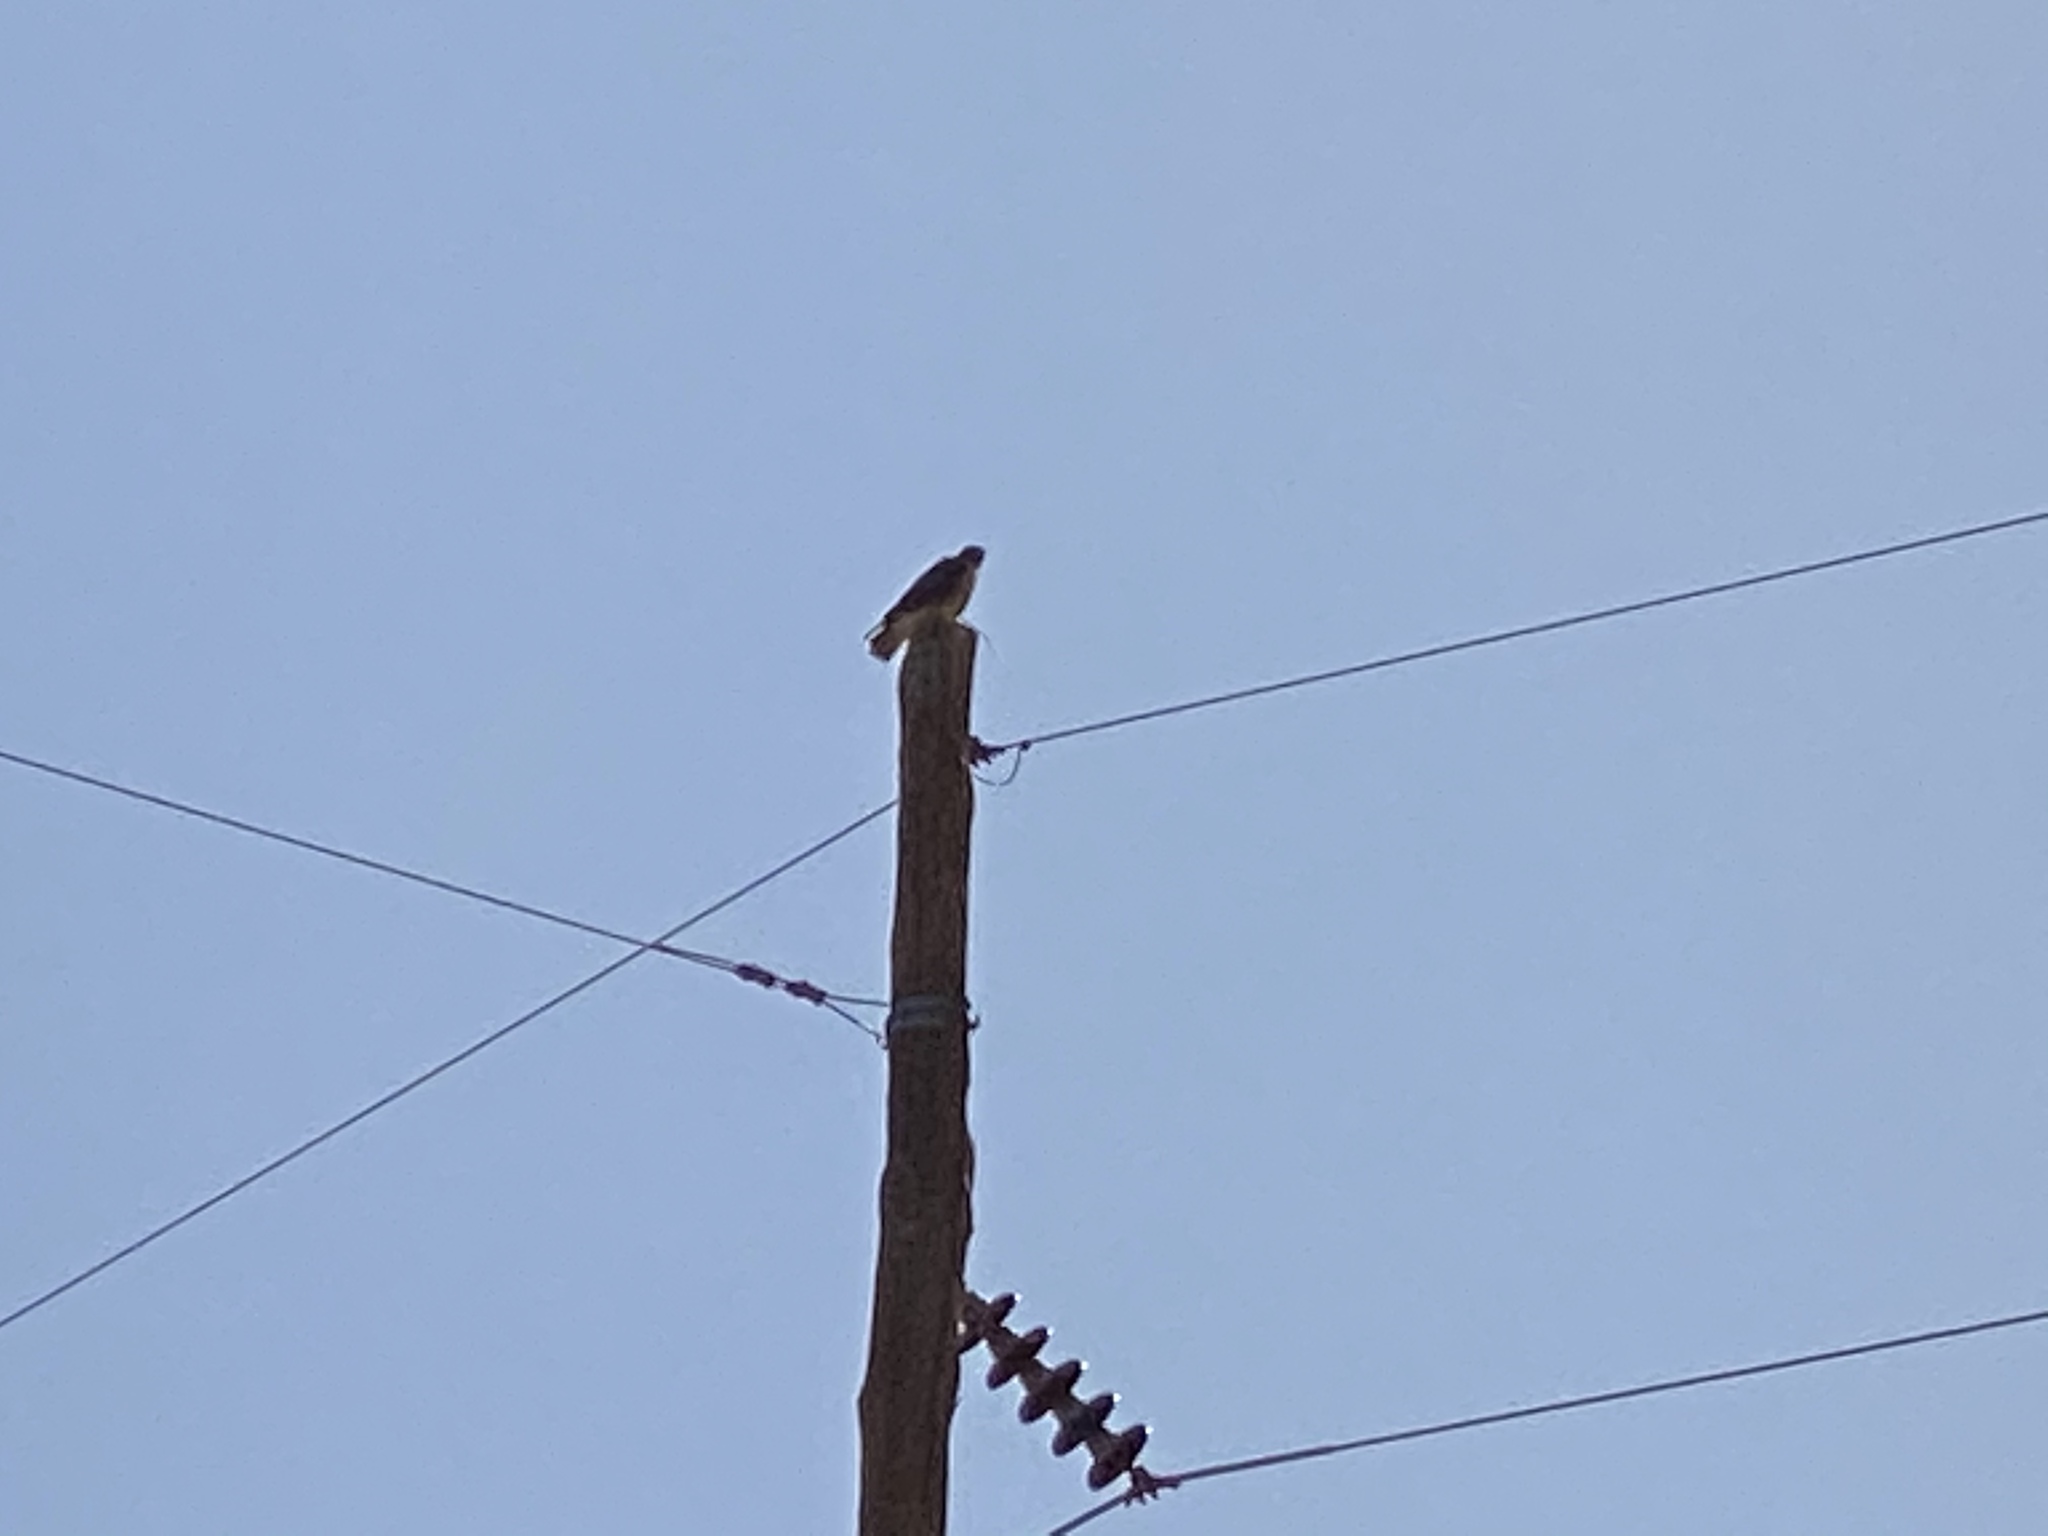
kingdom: Animalia
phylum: Chordata
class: Aves
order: Accipitriformes
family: Accipitridae
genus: Buteo
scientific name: Buteo jamaicensis
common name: Red-tailed hawk
